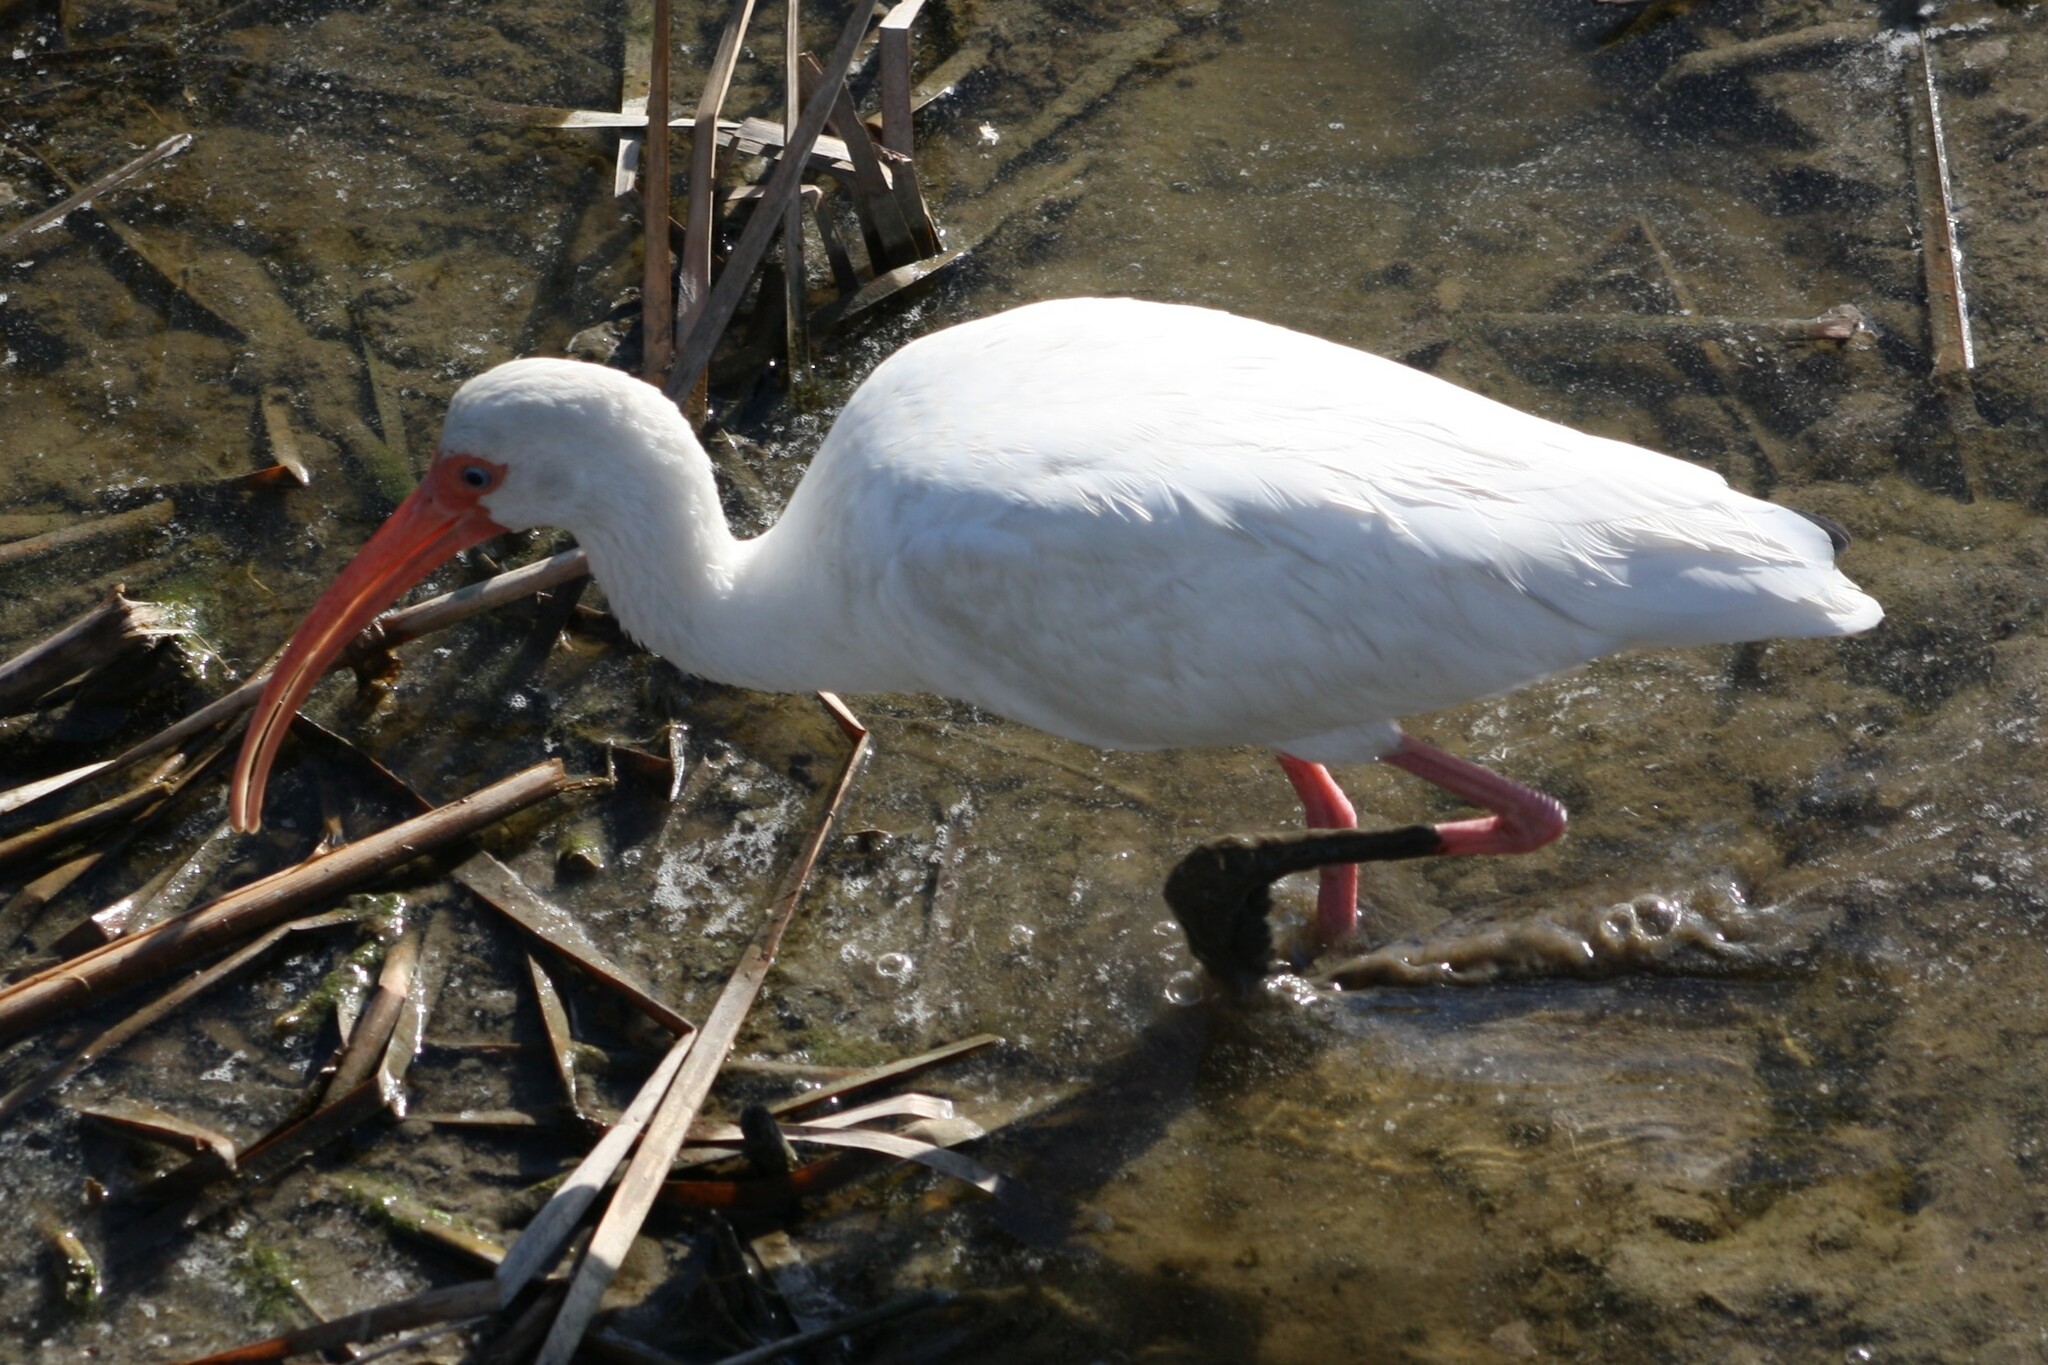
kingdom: Animalia
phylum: Chordata
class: Aves
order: Pelecaniformes
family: Threskiornithidae
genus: Eudocimus
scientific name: Eudocimus albus
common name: White ibis
